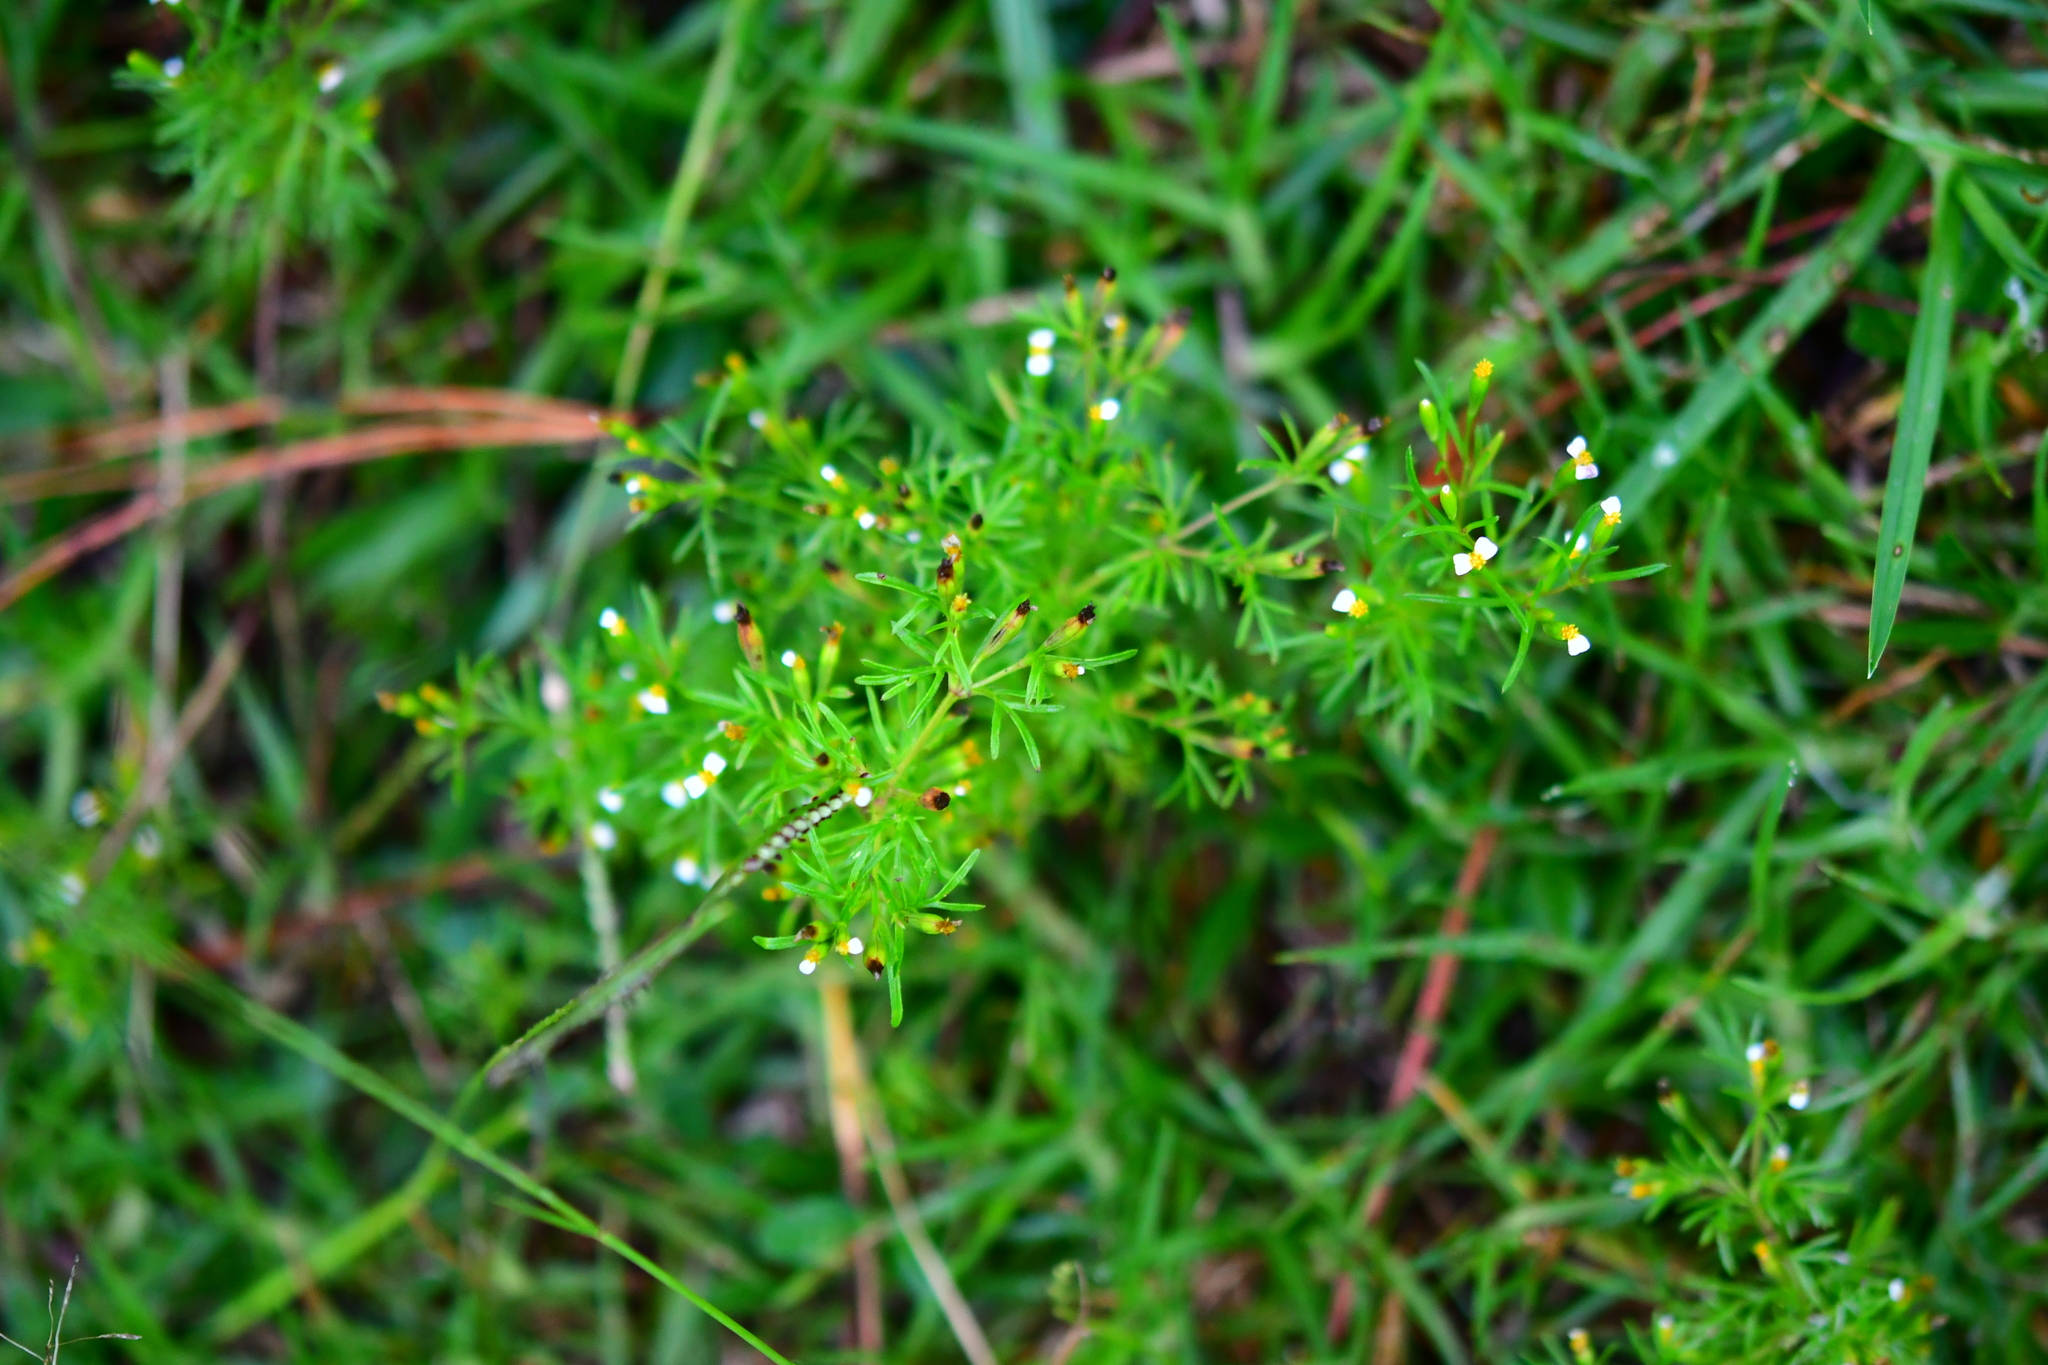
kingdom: Plantae
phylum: Tracheophyta
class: Magnoliopsida
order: Asterales
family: Asteraceae
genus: Tagetes
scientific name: Tagetes filifolia
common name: Lesser marigold
